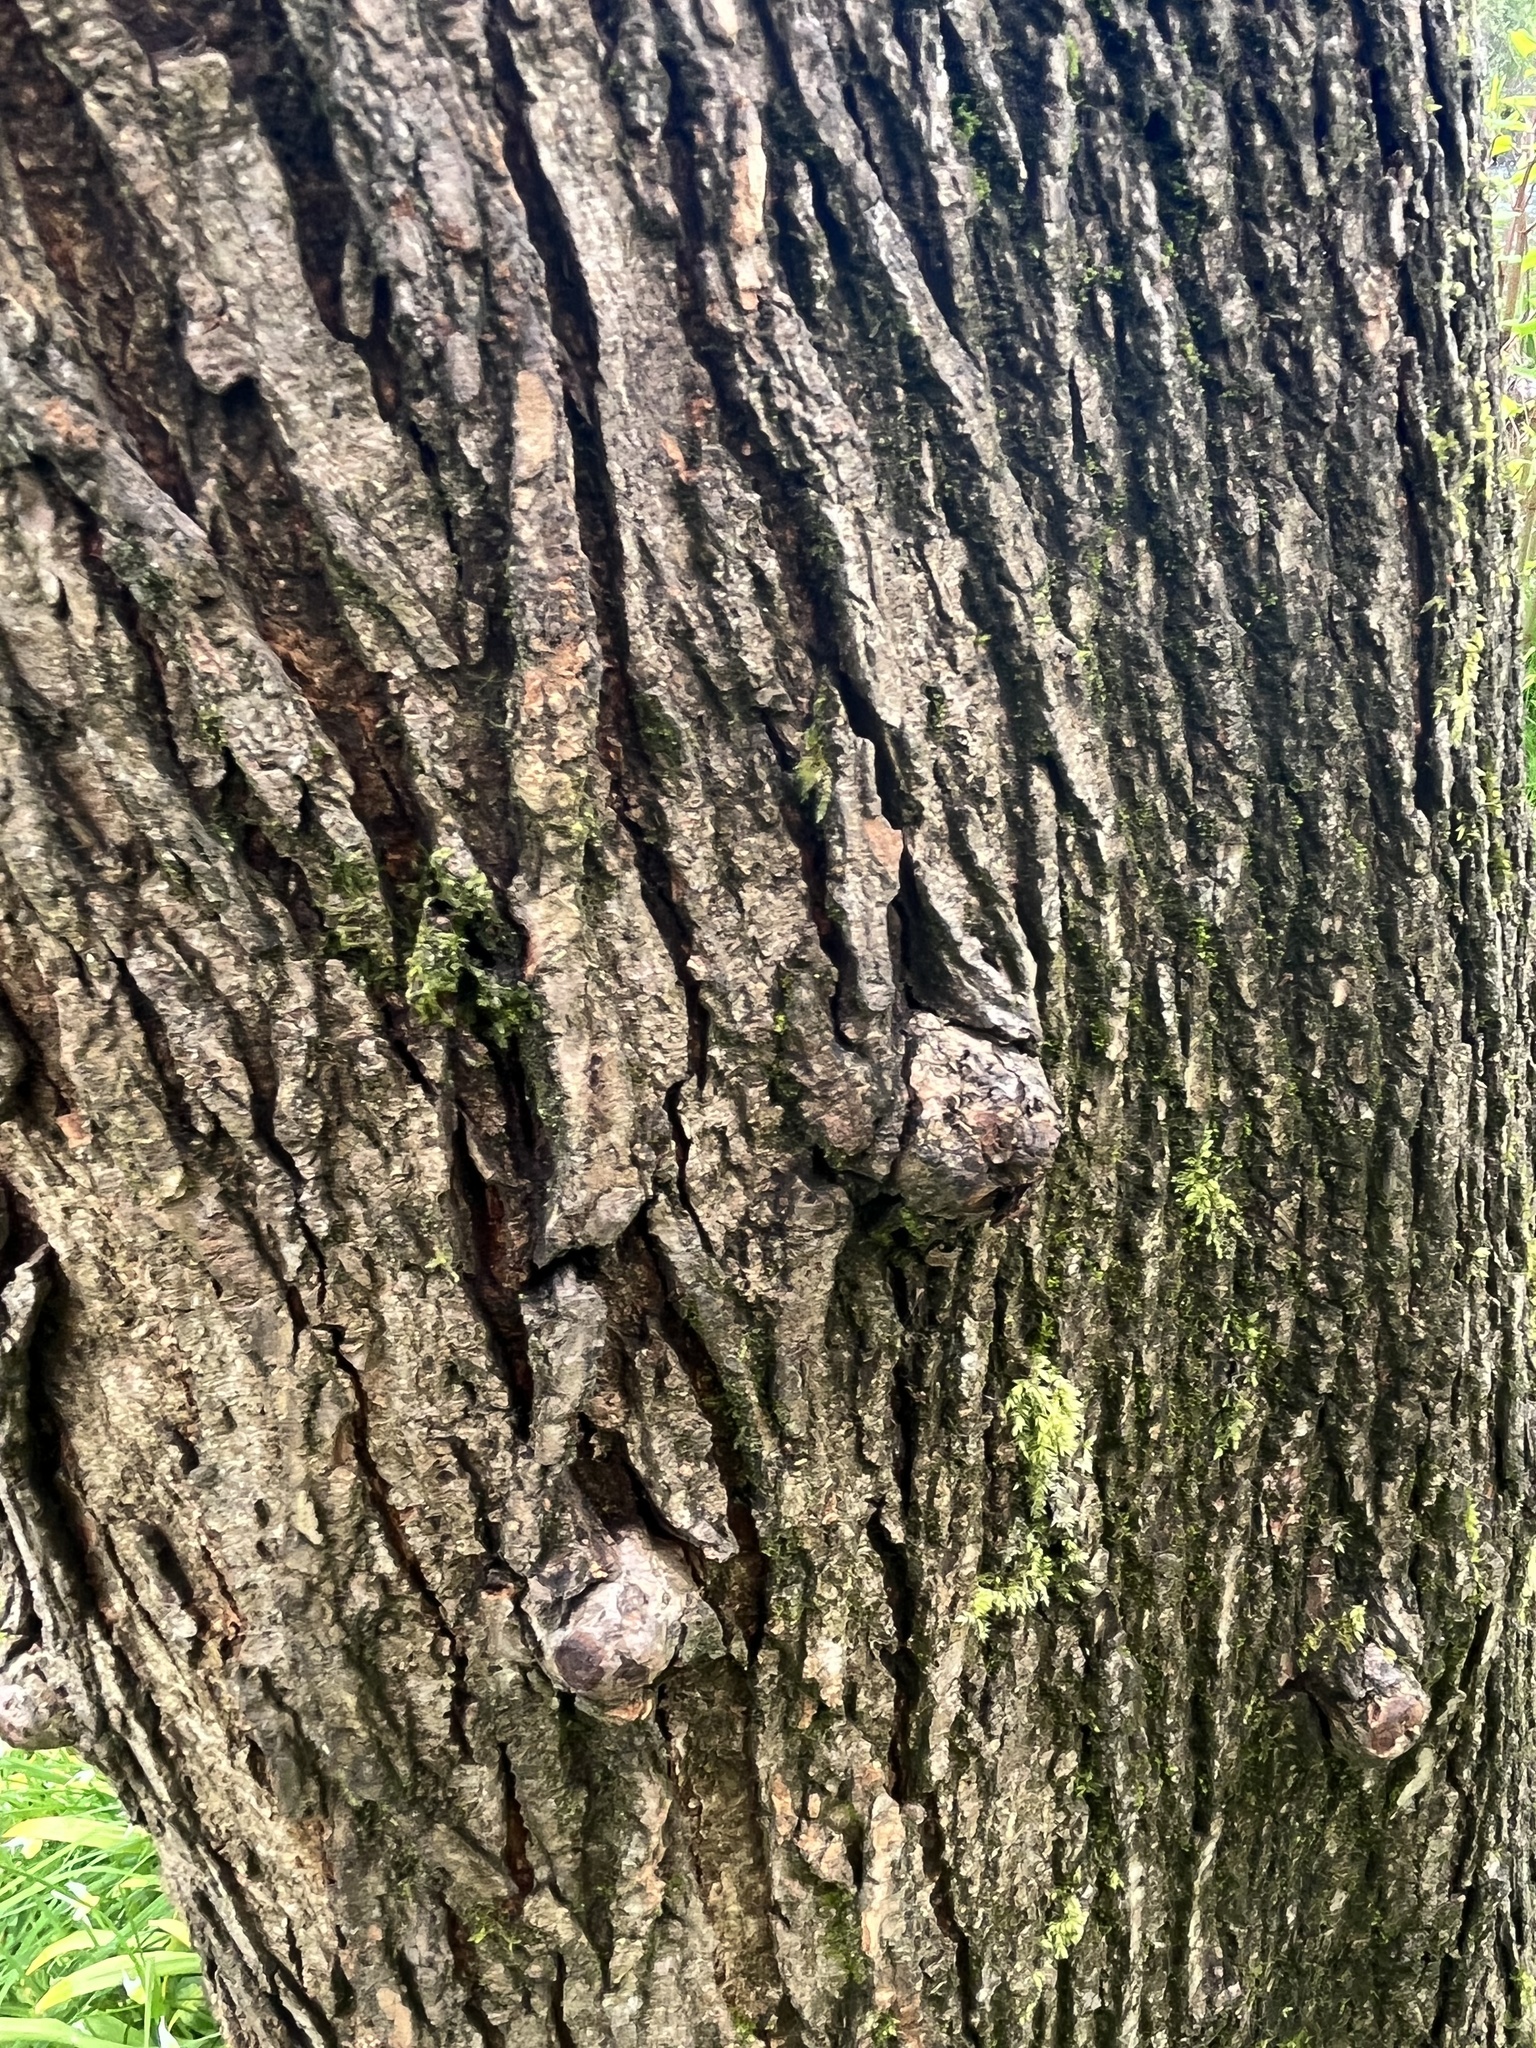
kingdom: Bacteria
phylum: Proteobacteria
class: Alphaproteobacteria
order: Rhizobiales
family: Rhizobiaceae
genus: Rhizobium
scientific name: Rhizobium Agrobacterium radiobacter
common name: Bacterial crown gall
